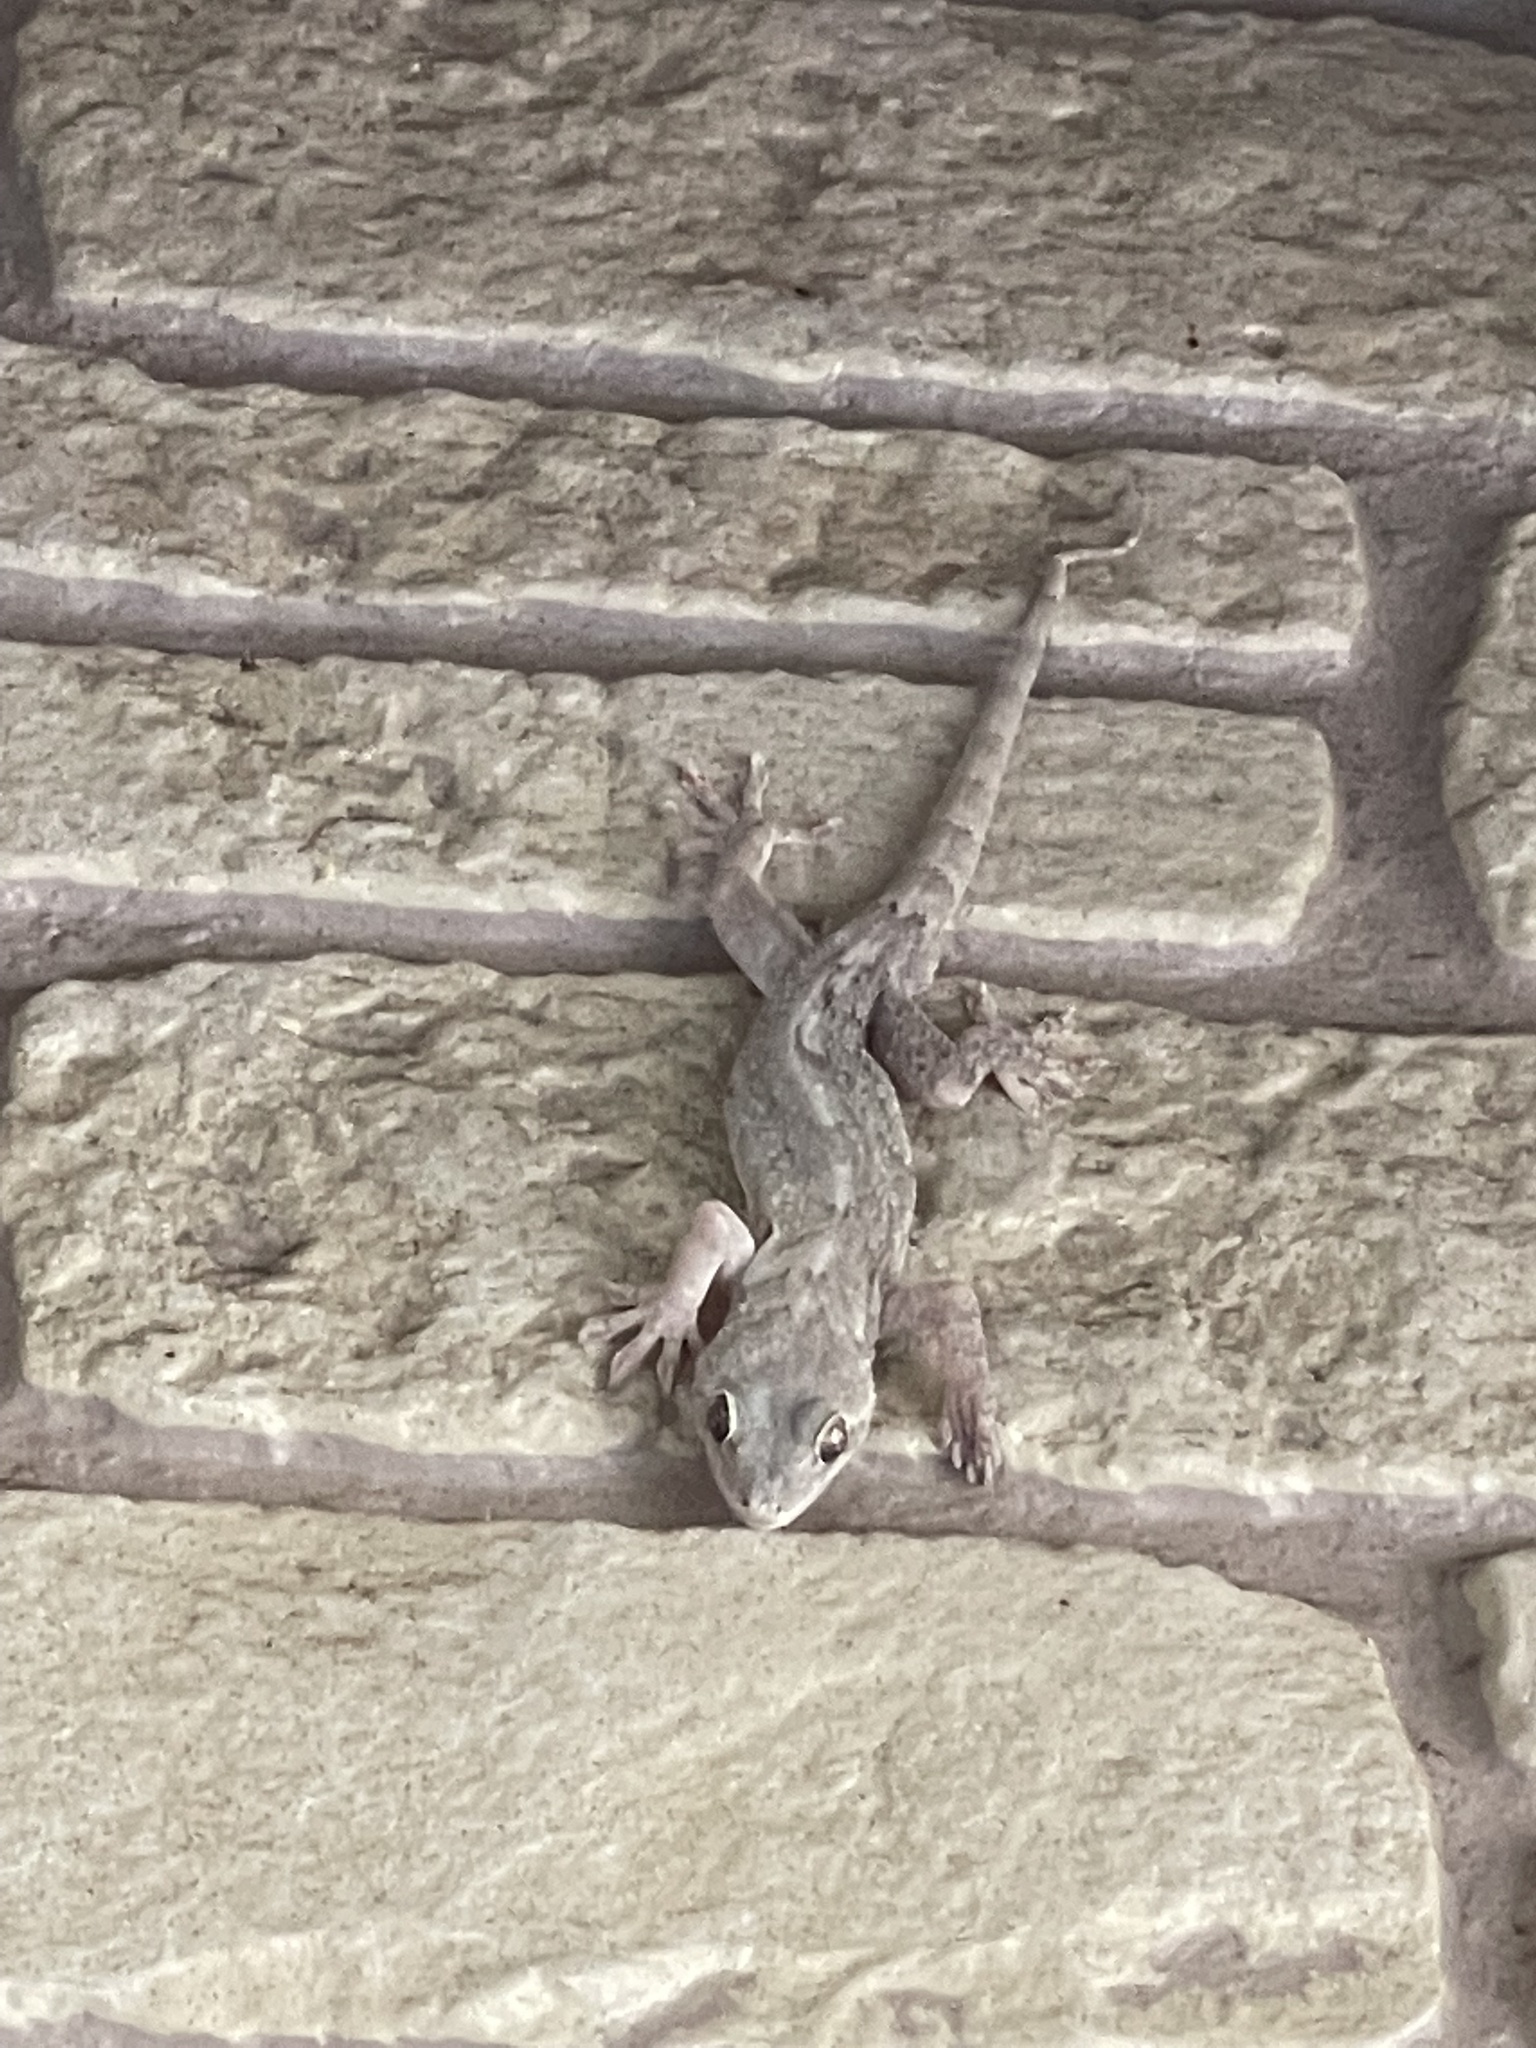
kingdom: Animalia
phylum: Chordata
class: Squamata
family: Gekkonidae
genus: Gekko
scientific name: Gekko japonicus
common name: Schlegel's japanese gecko
